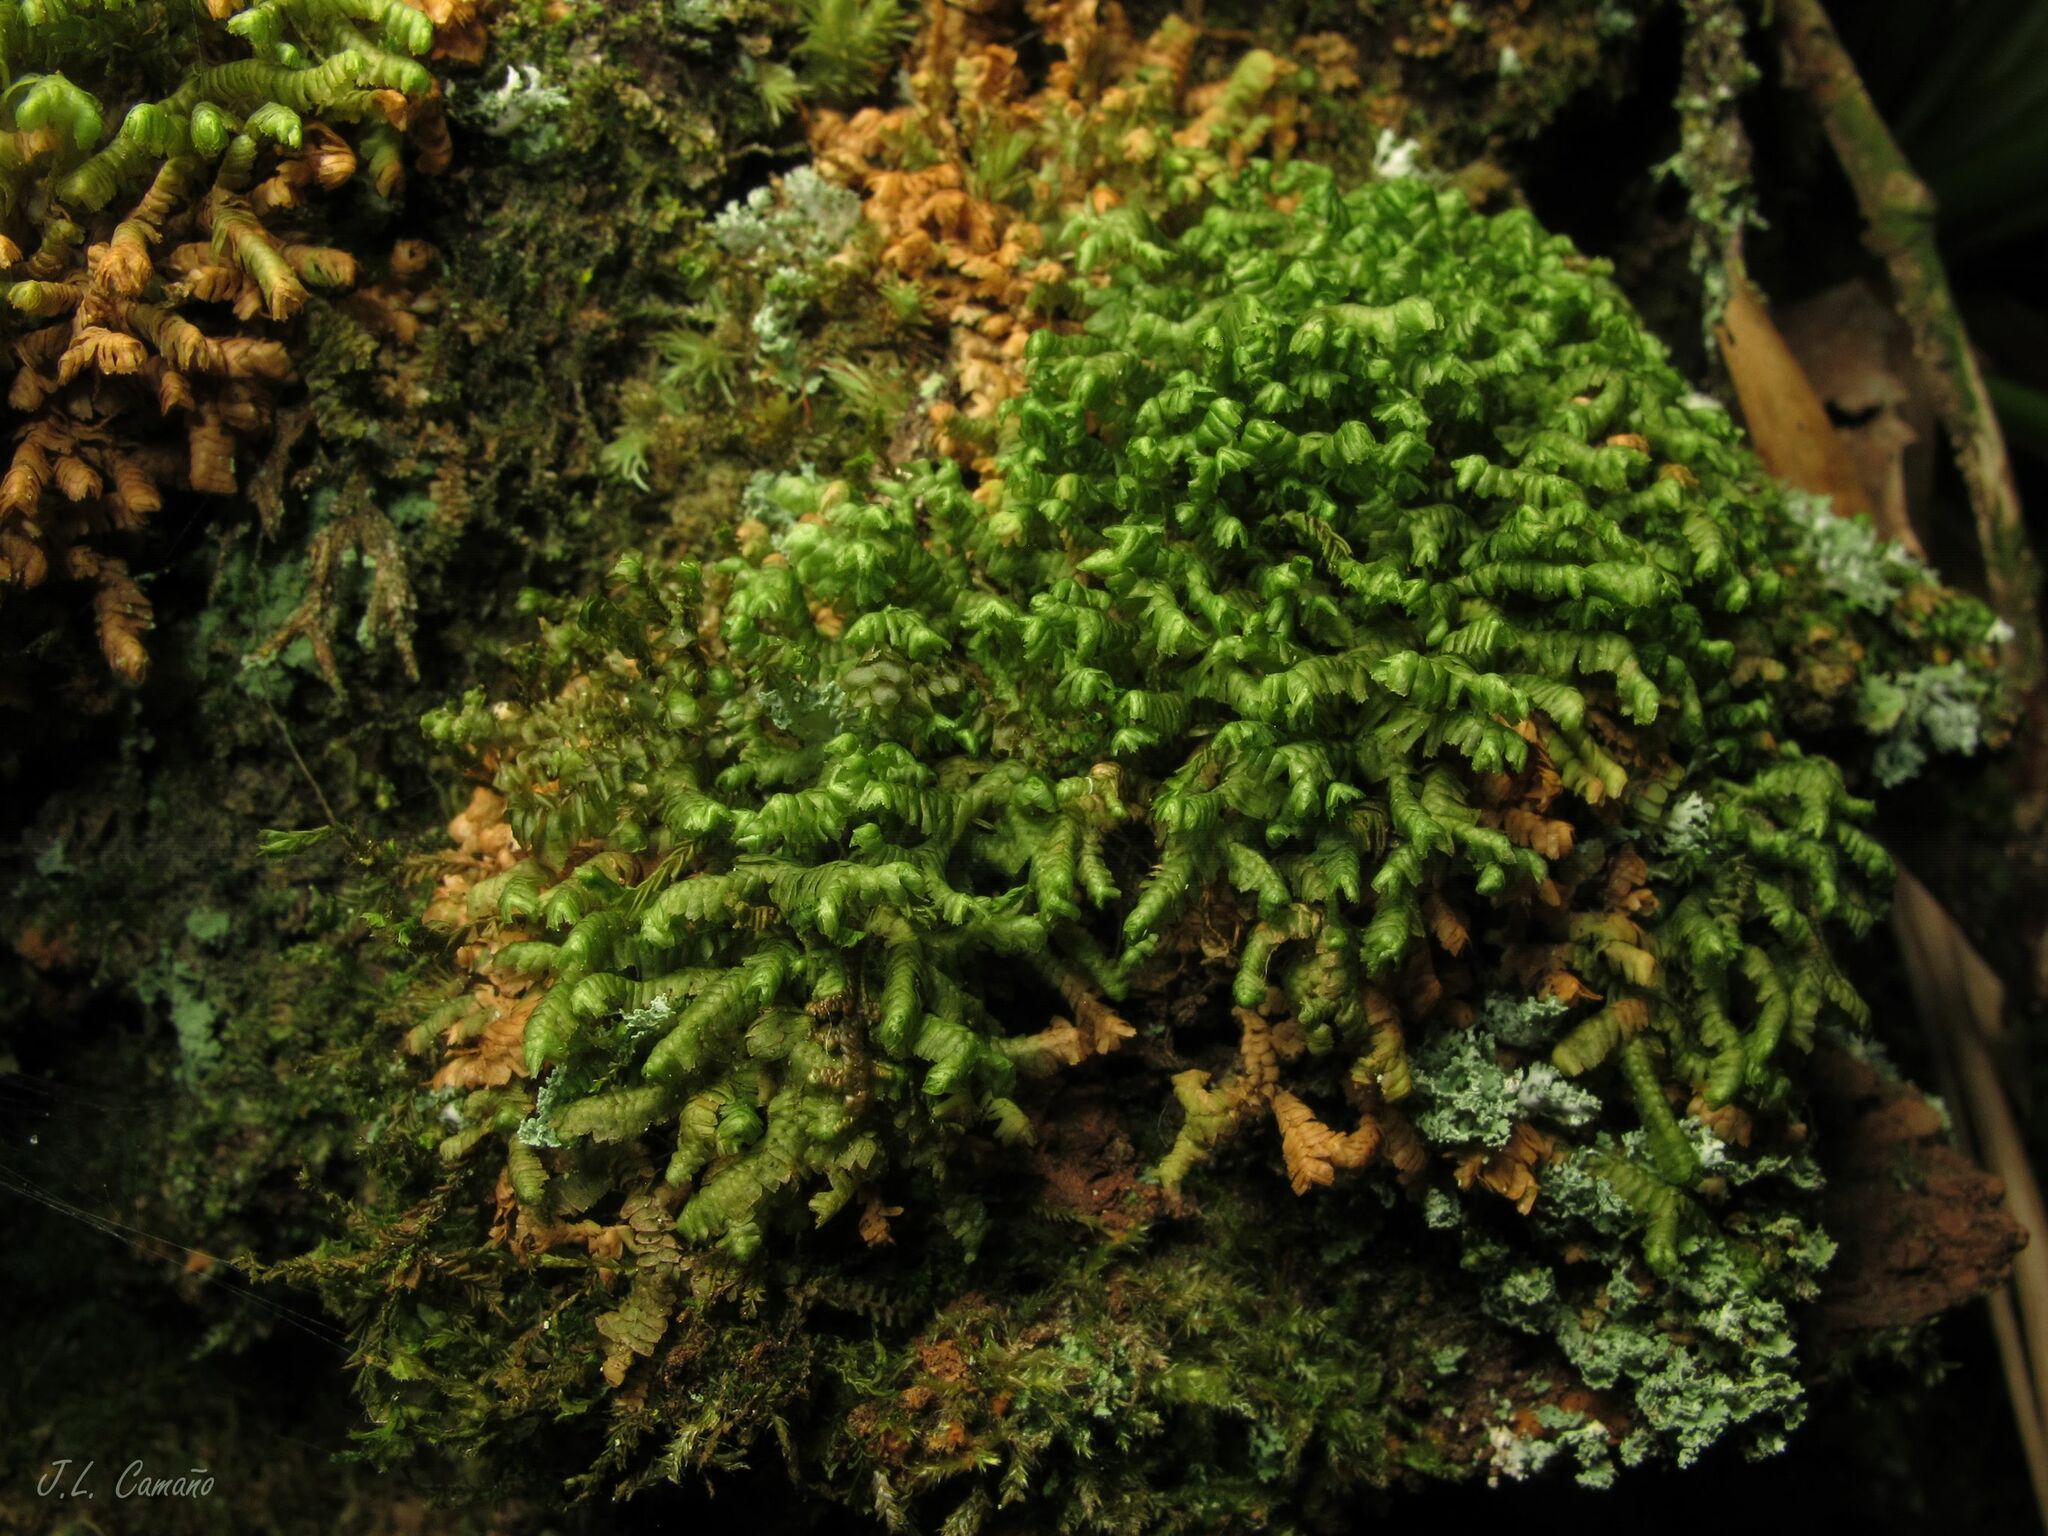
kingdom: Plantae
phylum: Marchantiophyta
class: Jungermanniopsida
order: Jungermanniales
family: Lepidoziaceae
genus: Bazzania
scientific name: Bazzania trilobata
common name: Three-lobed whipwort
